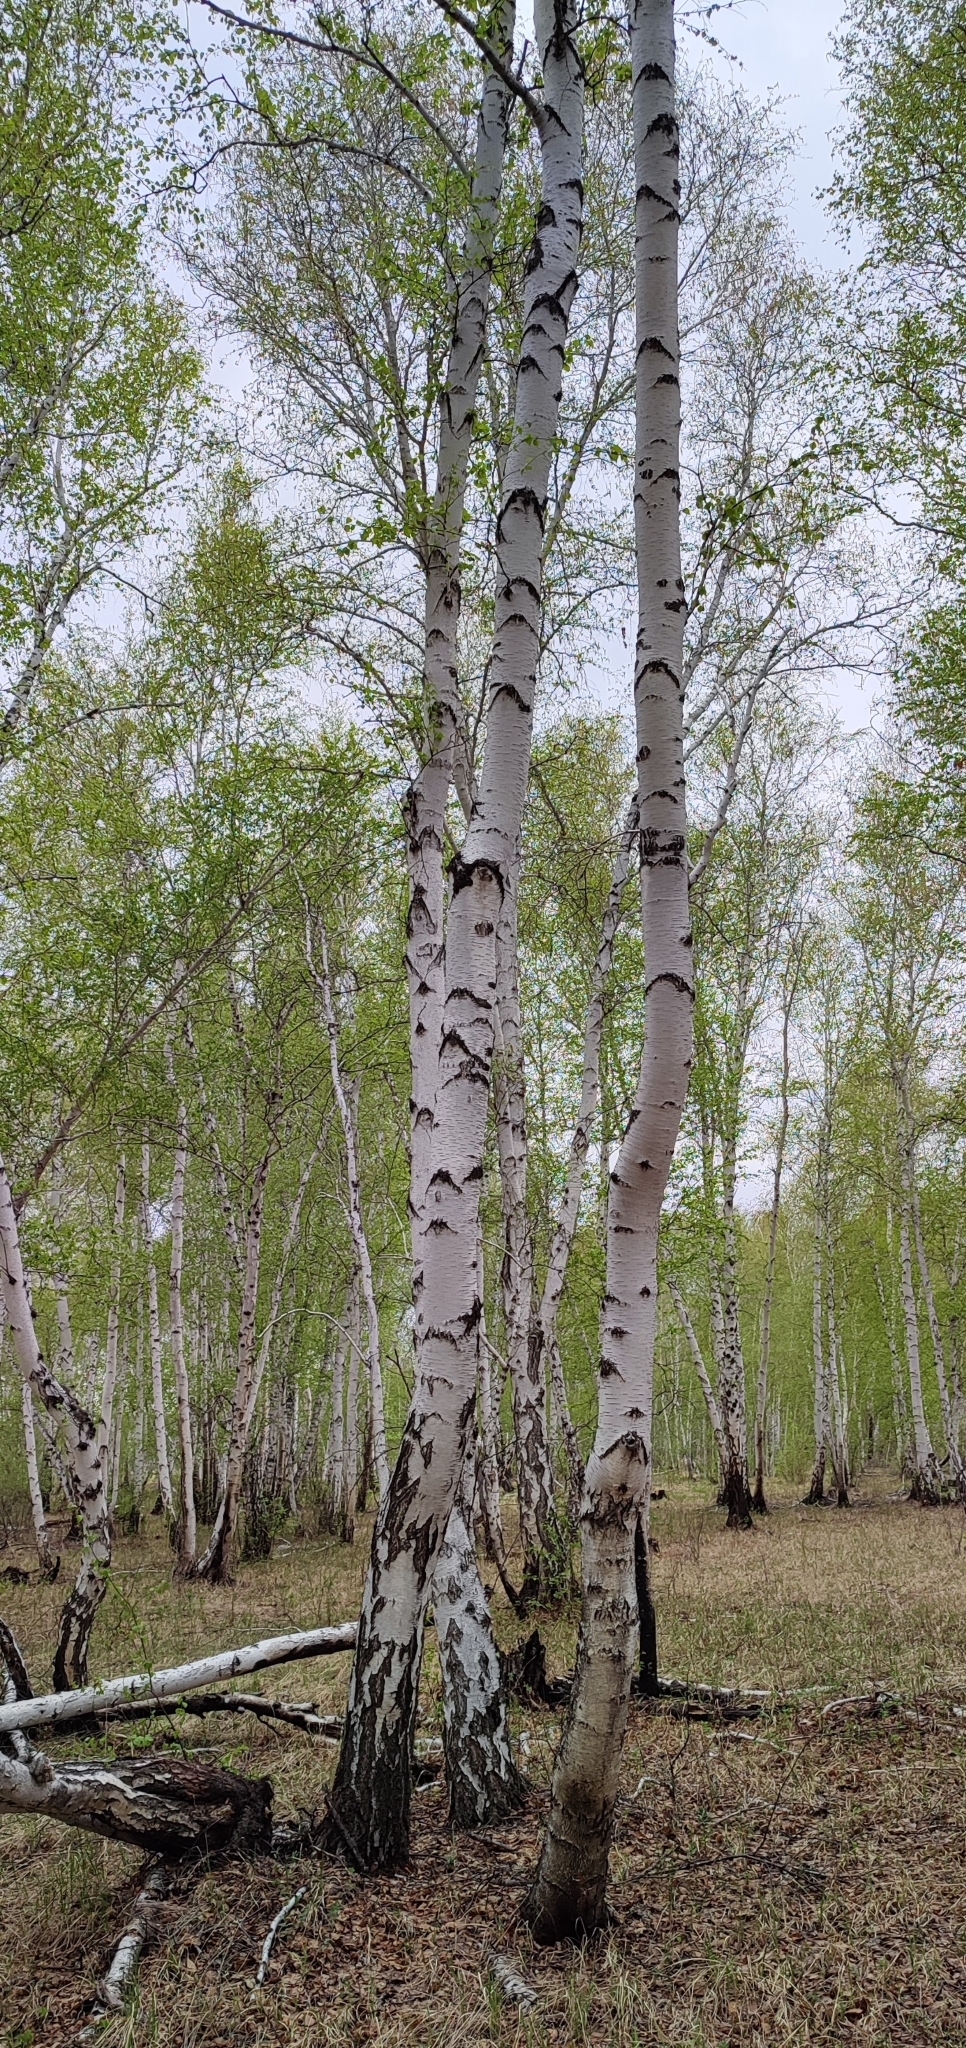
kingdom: Plantae
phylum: Tracheophyta
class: Magnoliopsida
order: Fagales
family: Betulaceae
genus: Betula
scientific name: Betula pendula
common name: Silver birch
